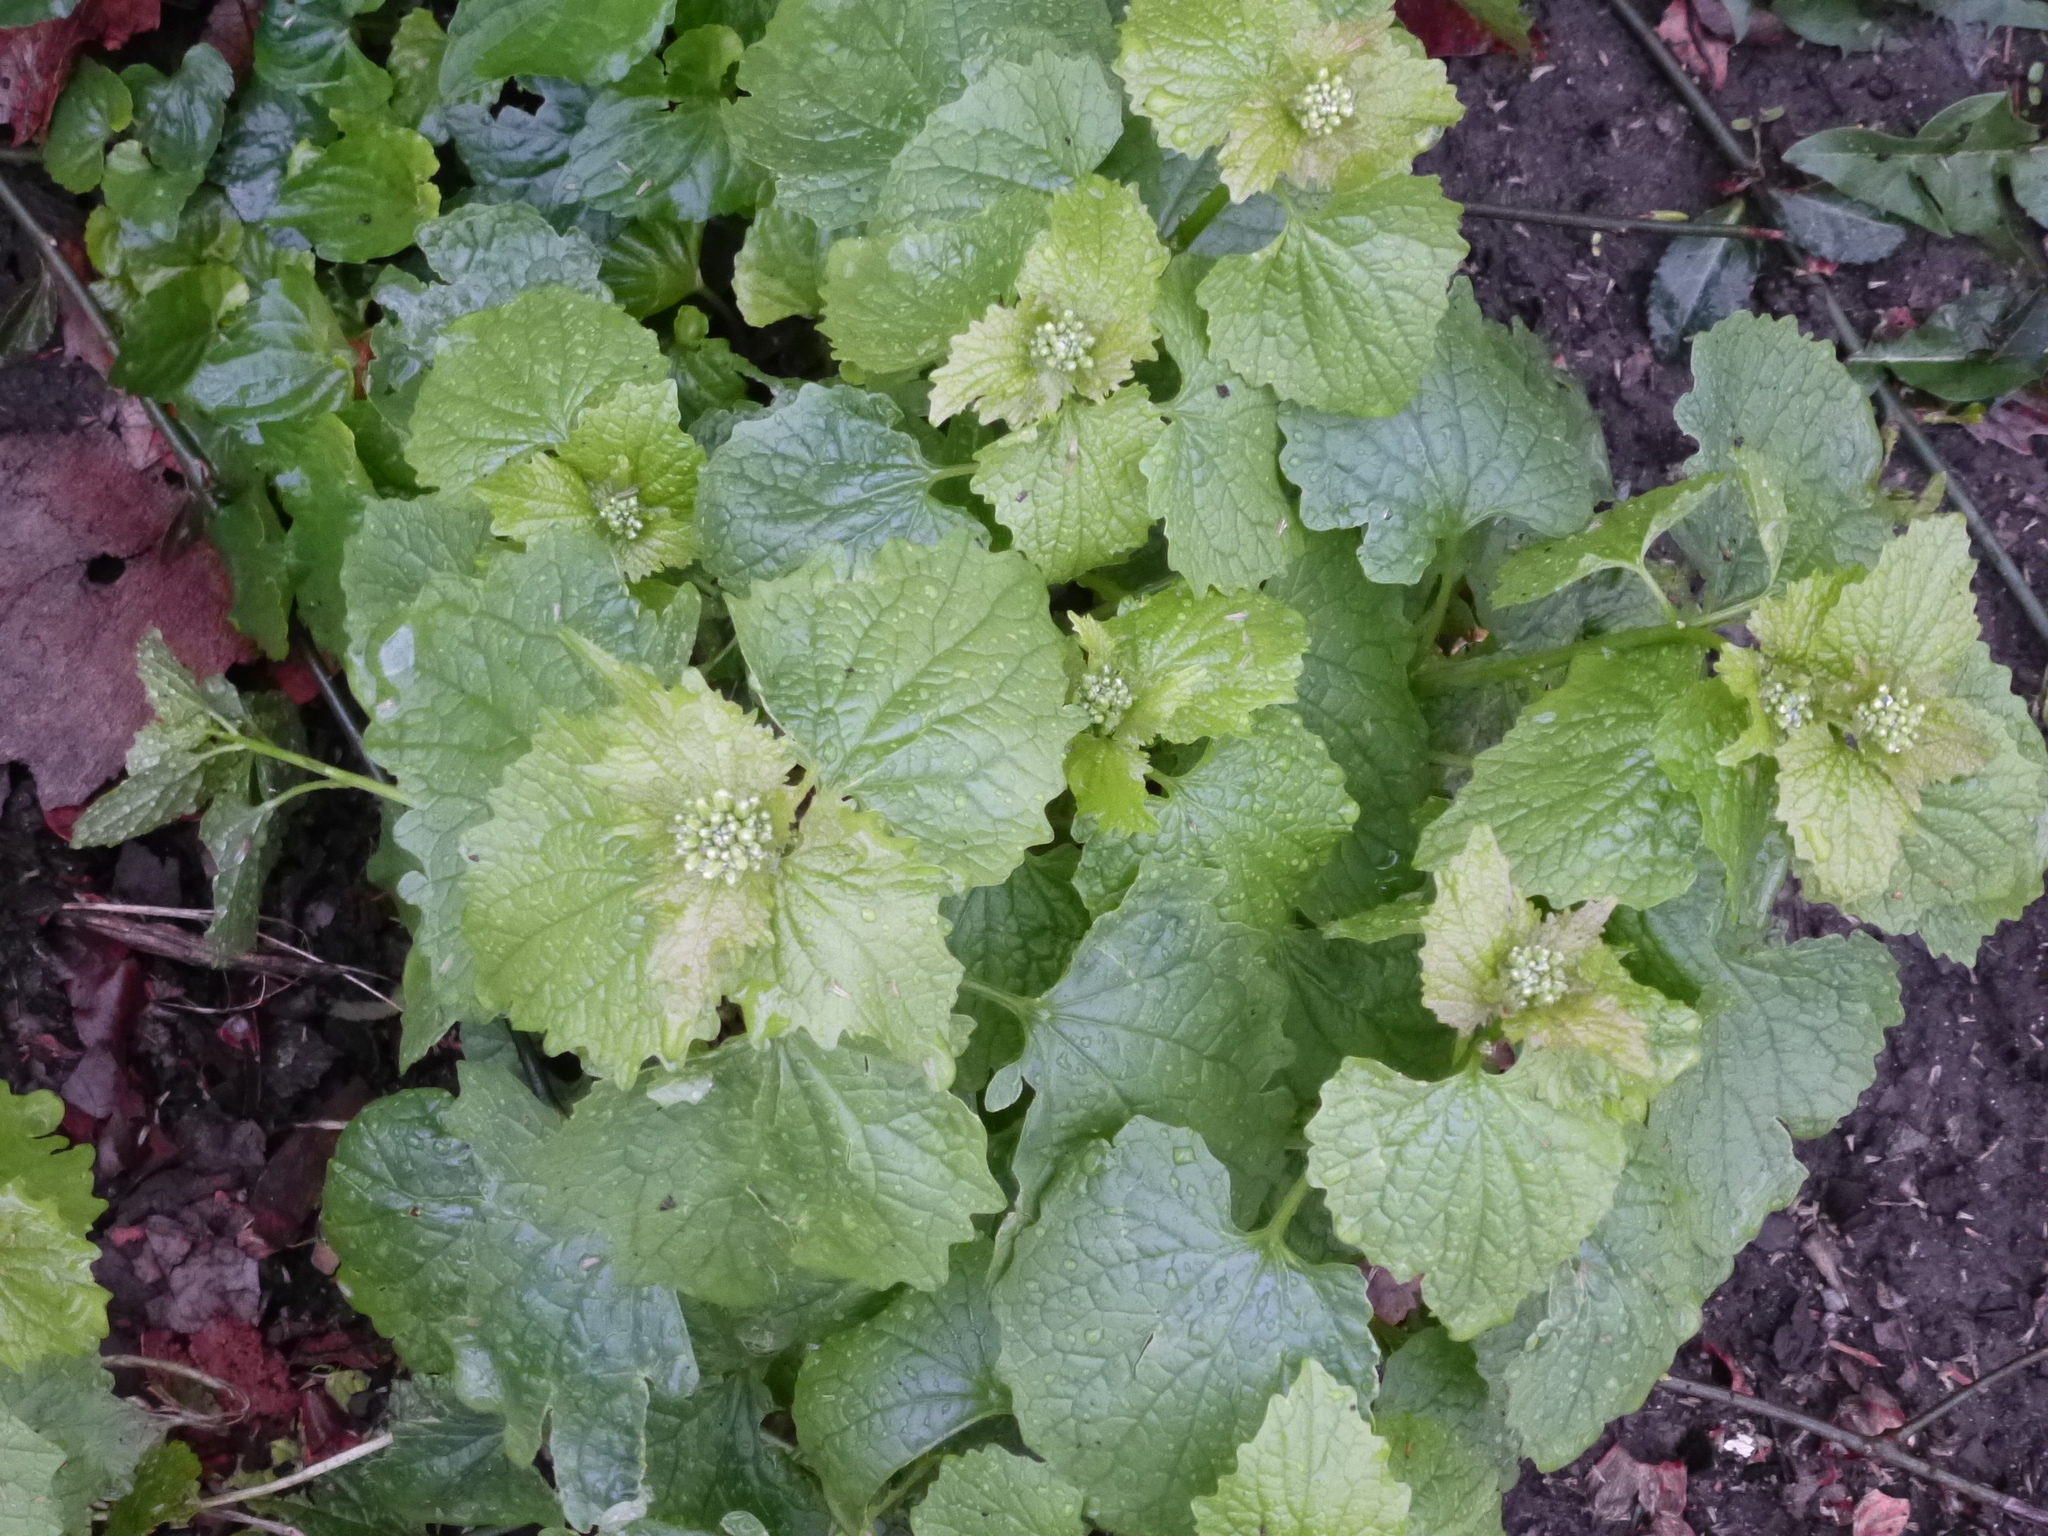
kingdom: Plantae
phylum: Tracheophyta
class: Magnoliopsida
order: Brassicales
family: Brassicaceae
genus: Alliaria
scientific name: Alliaria petiolata
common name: Garlic mustard
